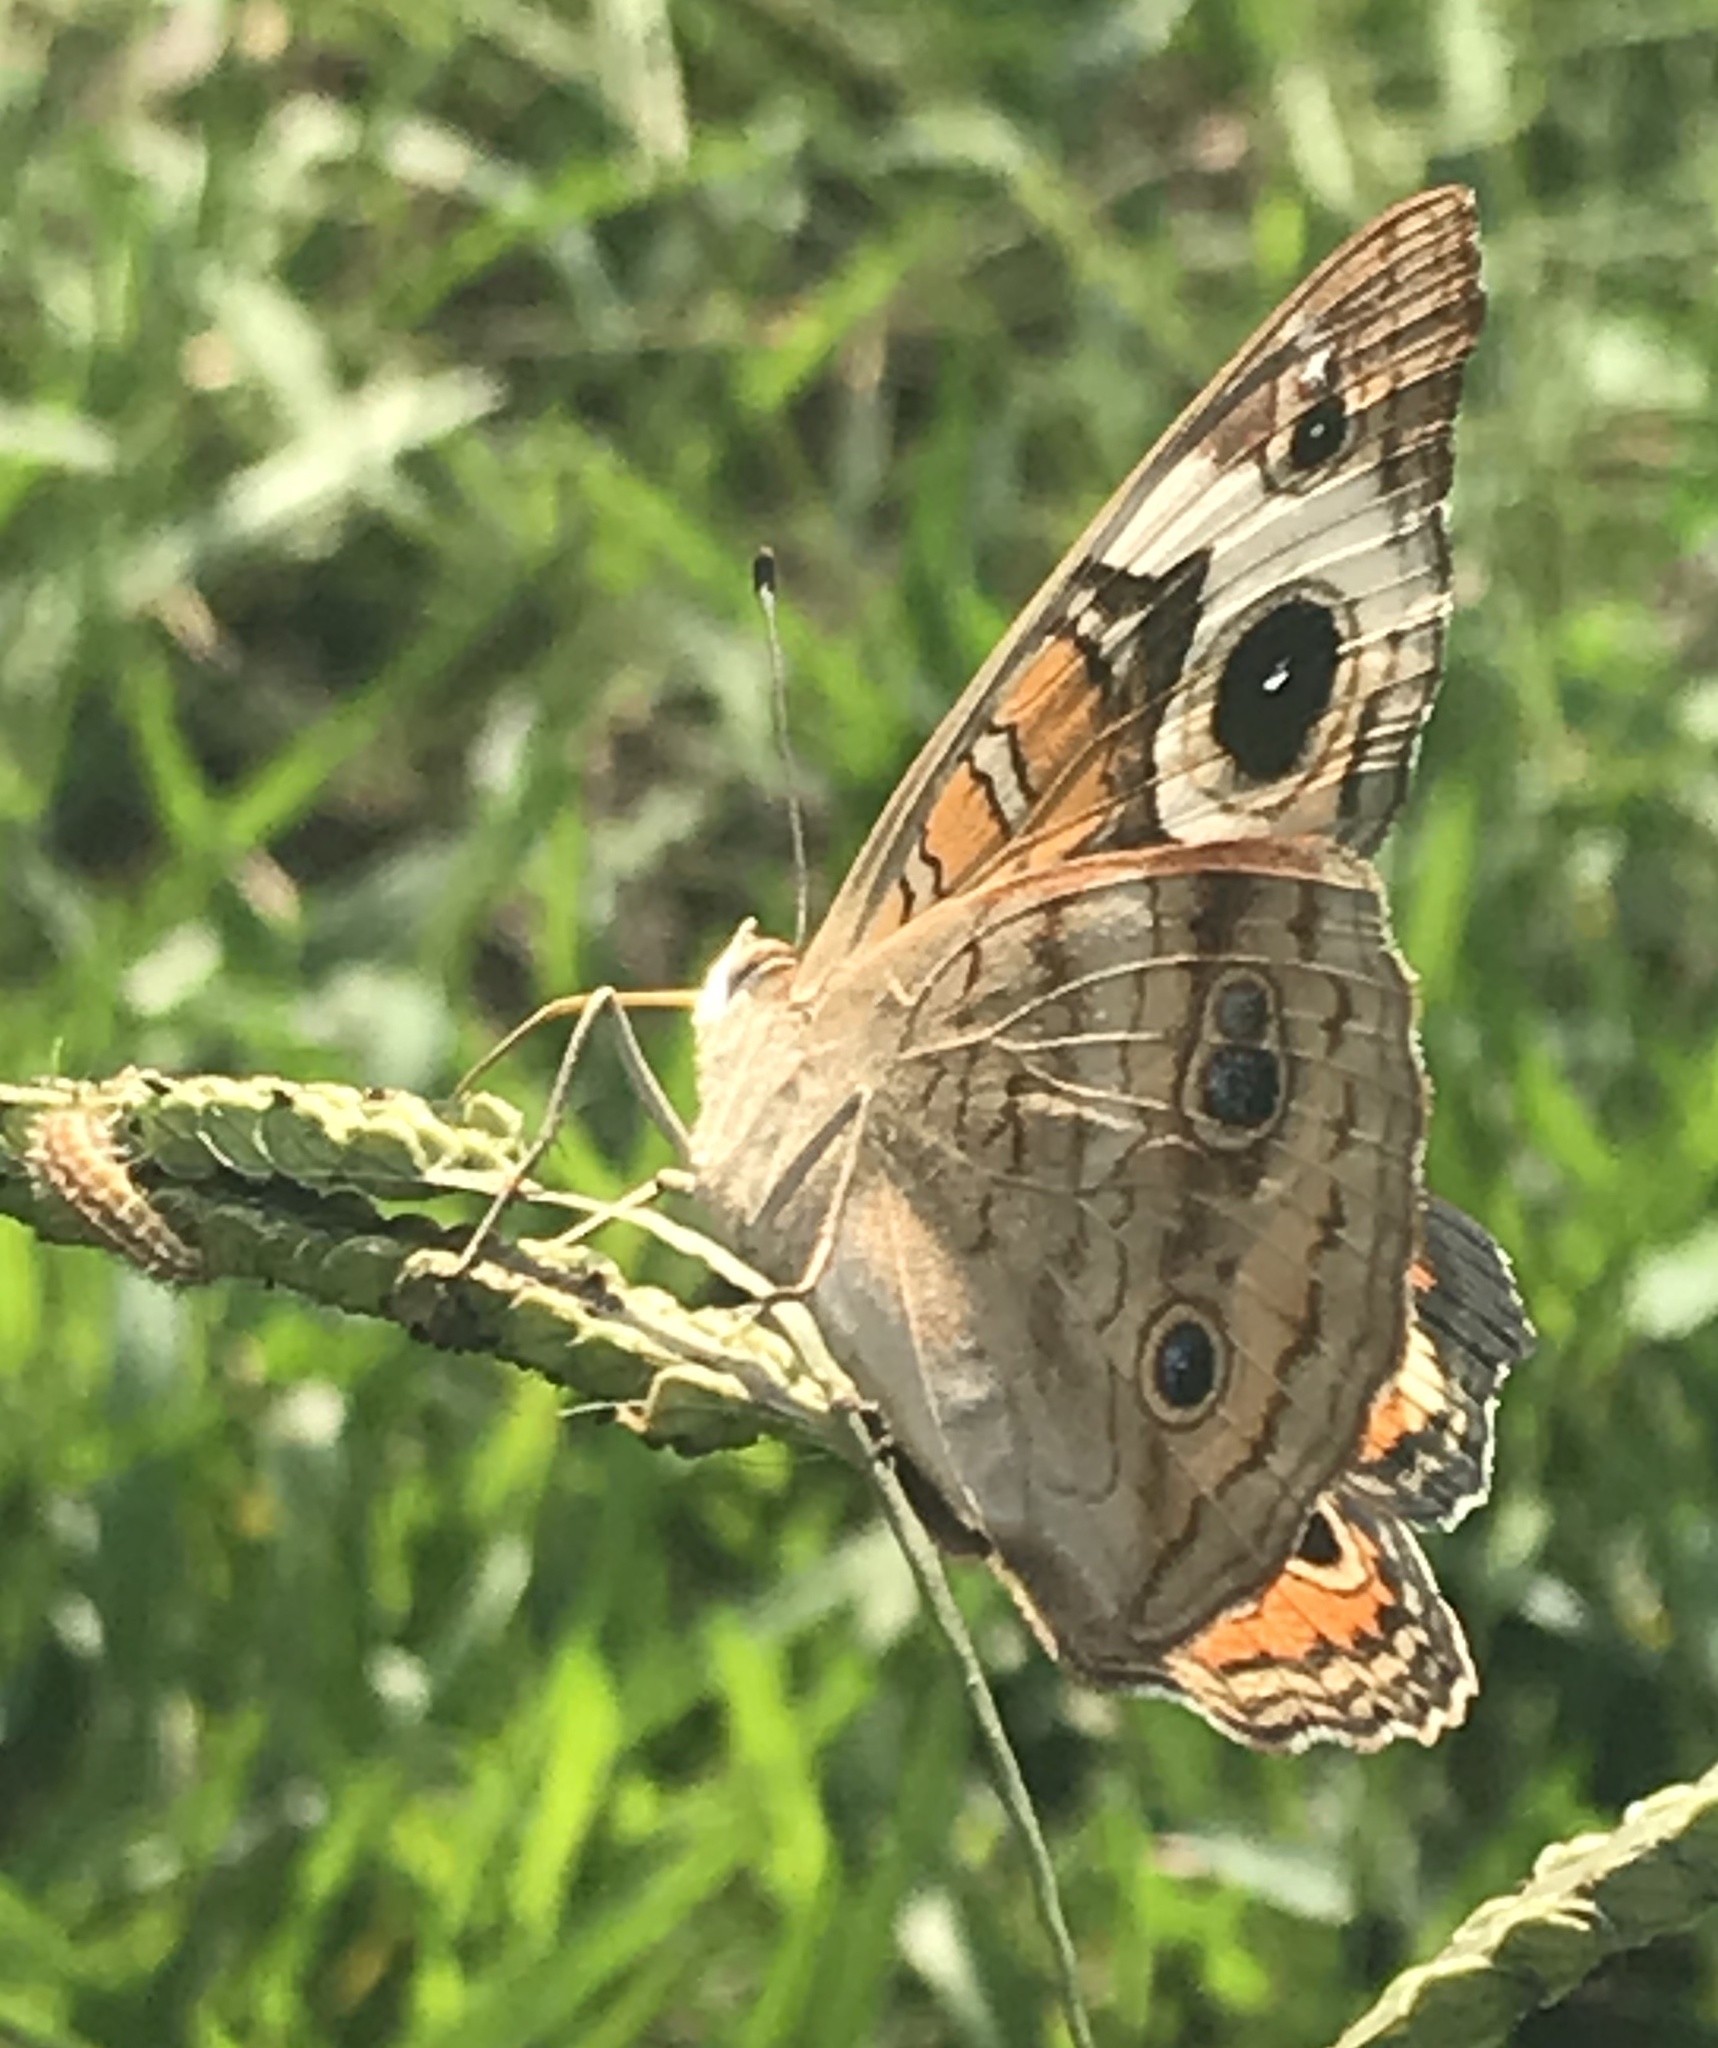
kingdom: Animalia
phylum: Arthropoda
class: Insecta
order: Lepidoptera
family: Nymphalidae
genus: Junonia
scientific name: Junonia coenia
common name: Common buckeye
